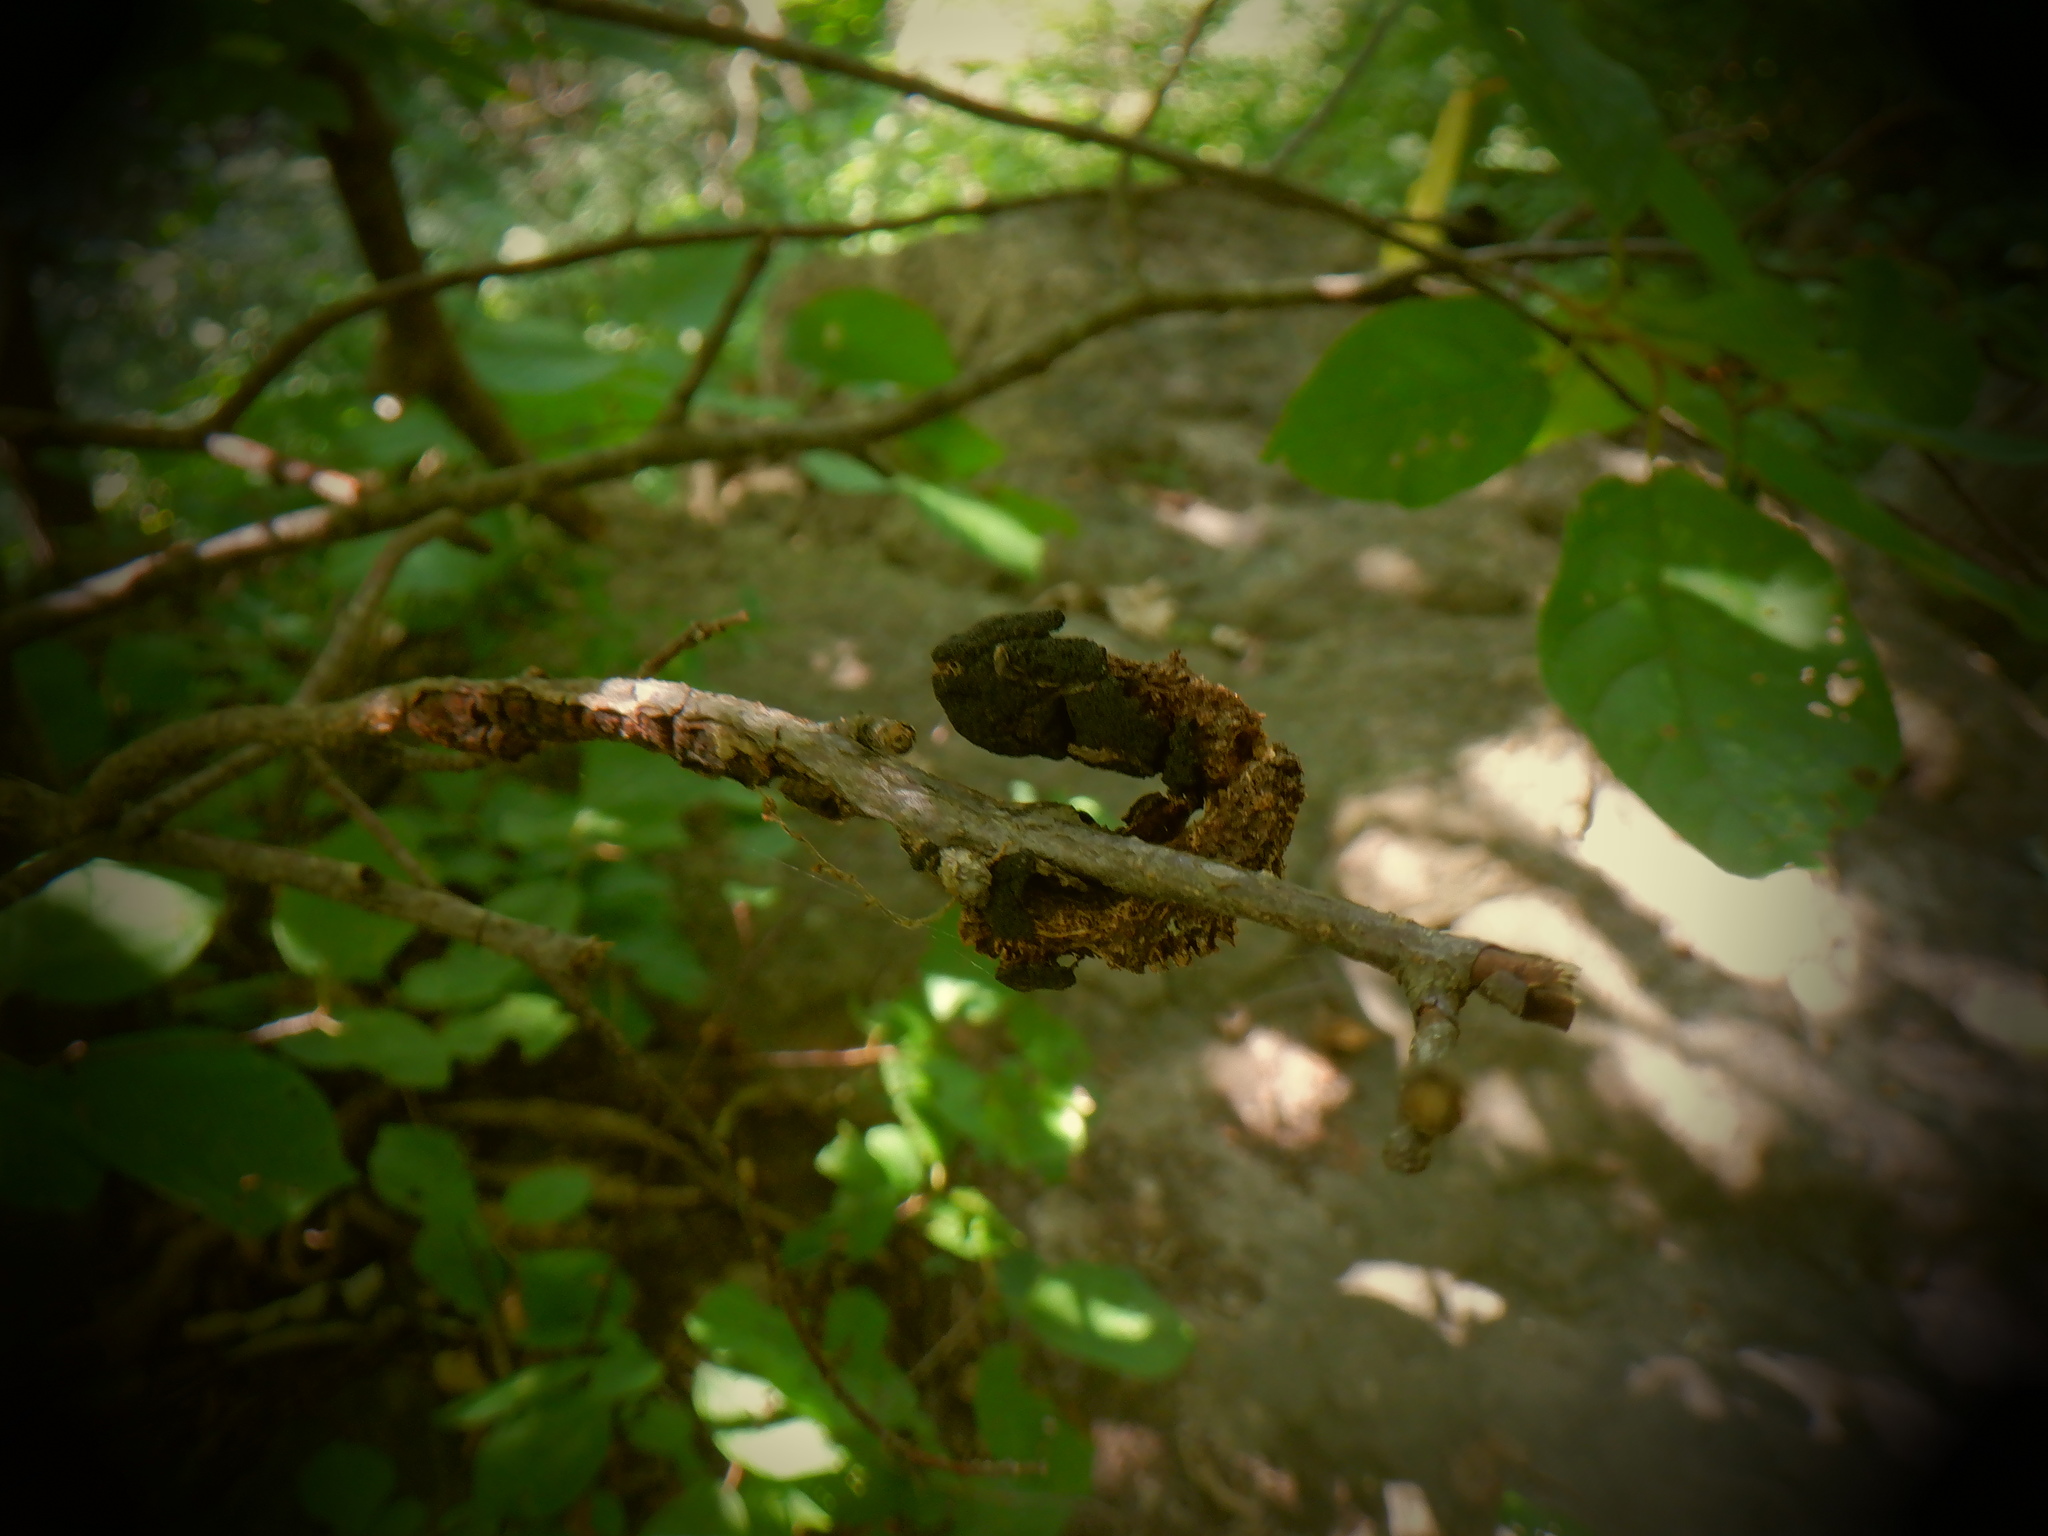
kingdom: Fungi
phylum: Ascomycota
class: Dothideomycetes
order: Venturiales
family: Venturiaceae
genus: Apiosporina
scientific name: Apiosporina morbosa
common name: Black knot
